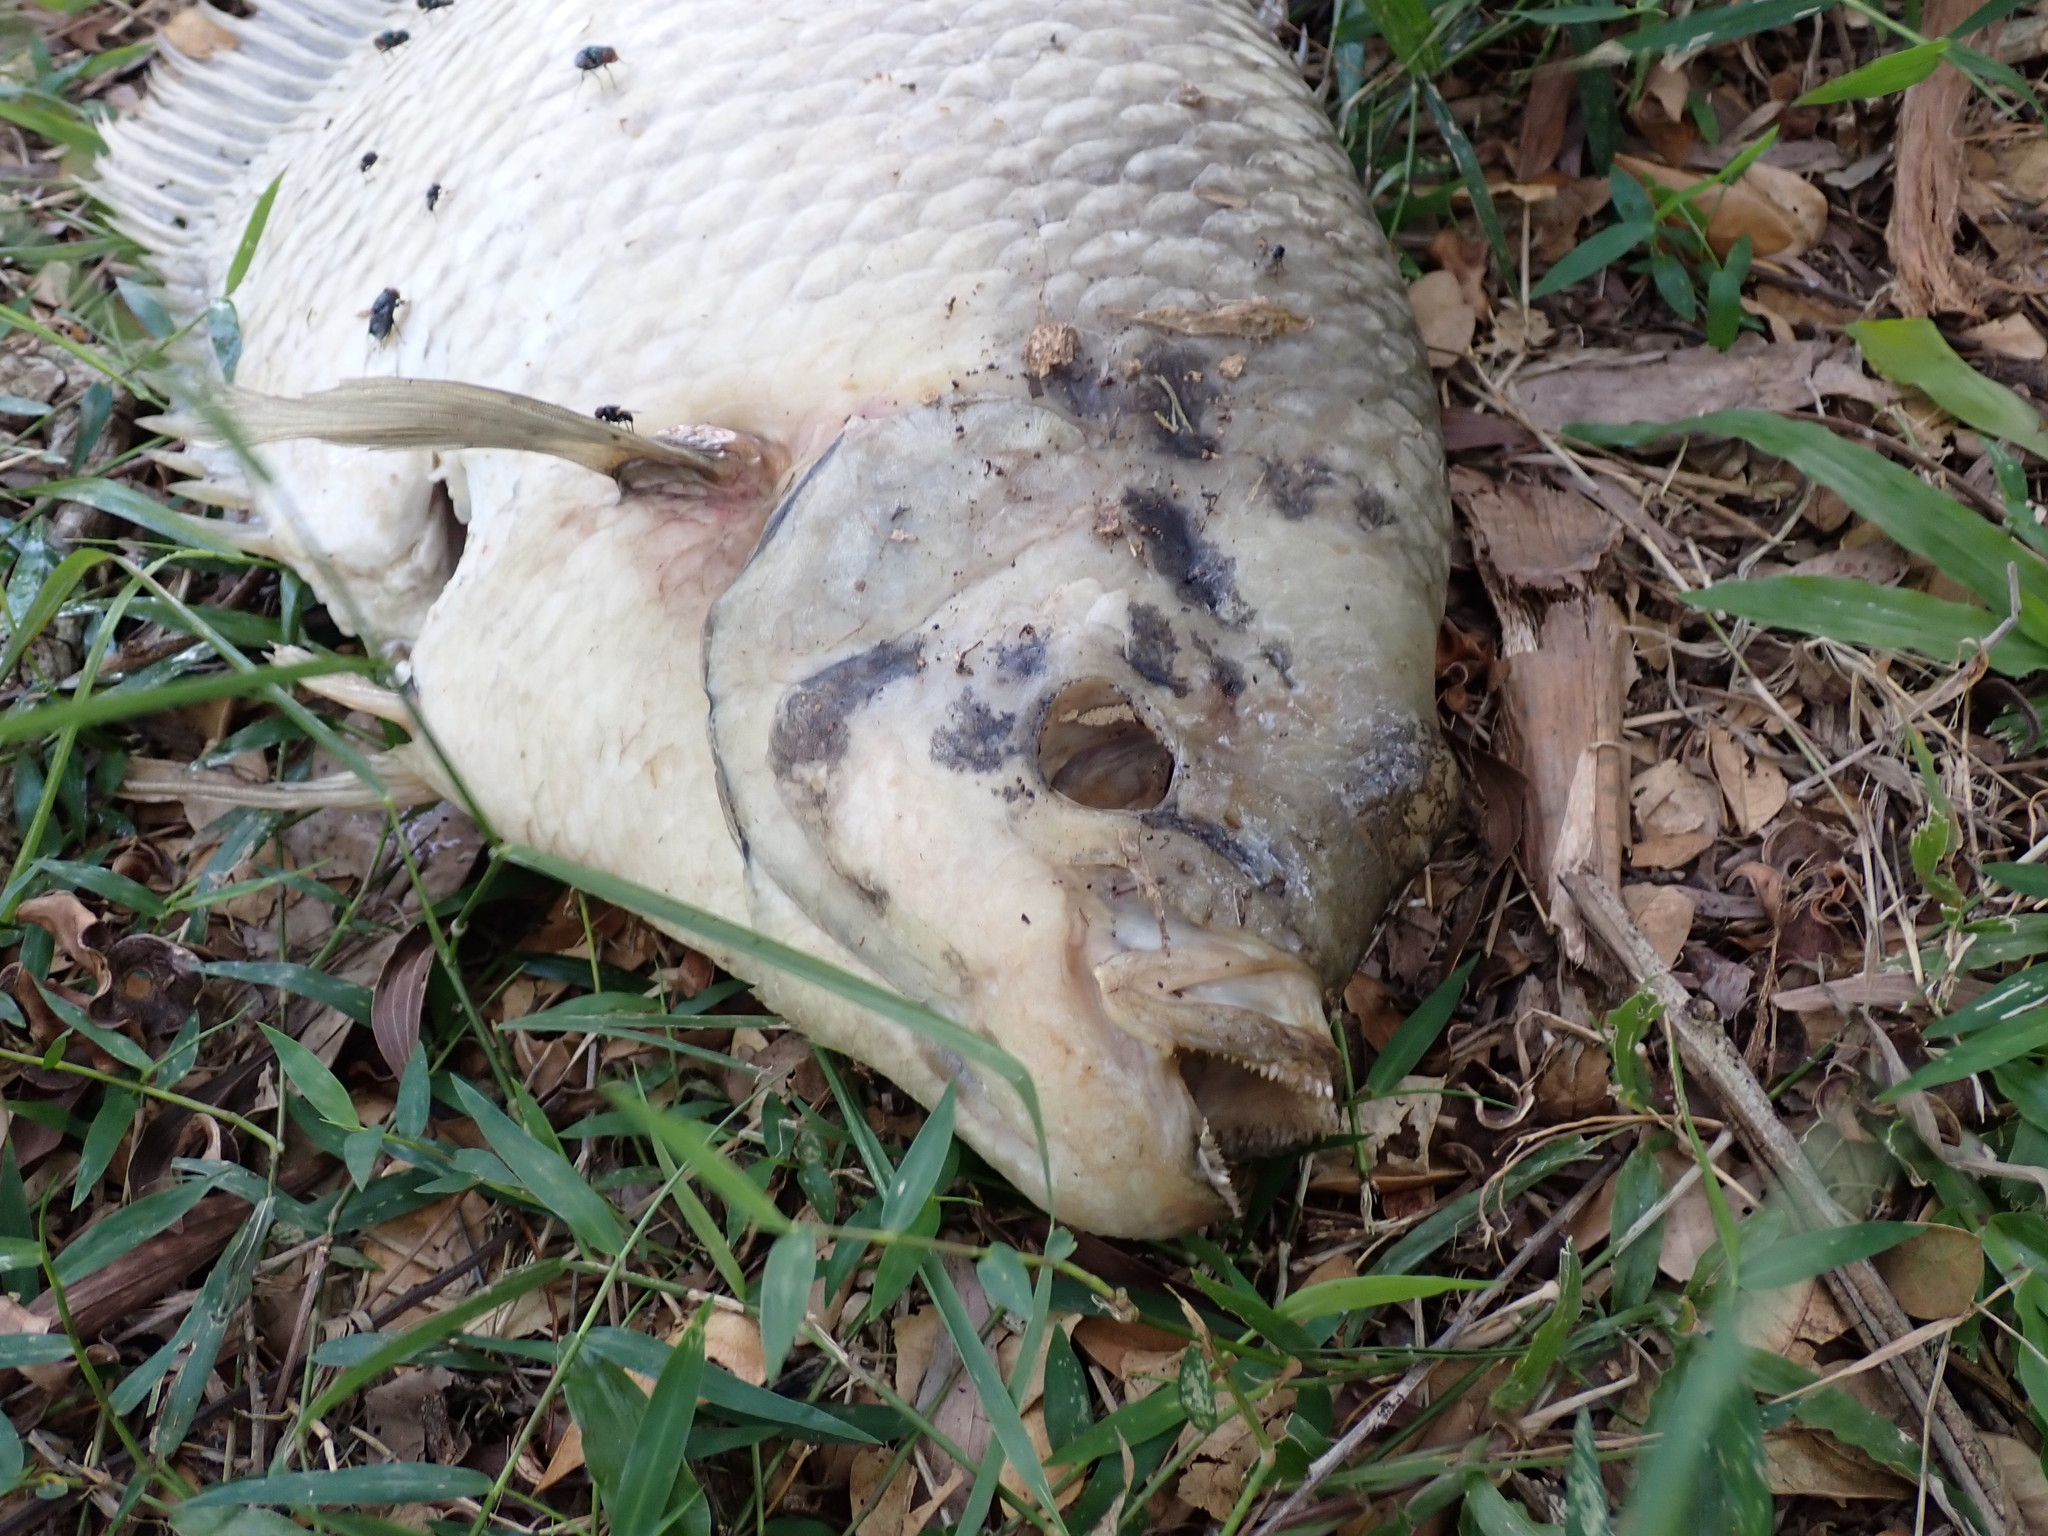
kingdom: Animalia
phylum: Chordata
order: Perciformes
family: Osphronemidae
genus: Osphronemus
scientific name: Osphronemus goramy
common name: Giant gourami
